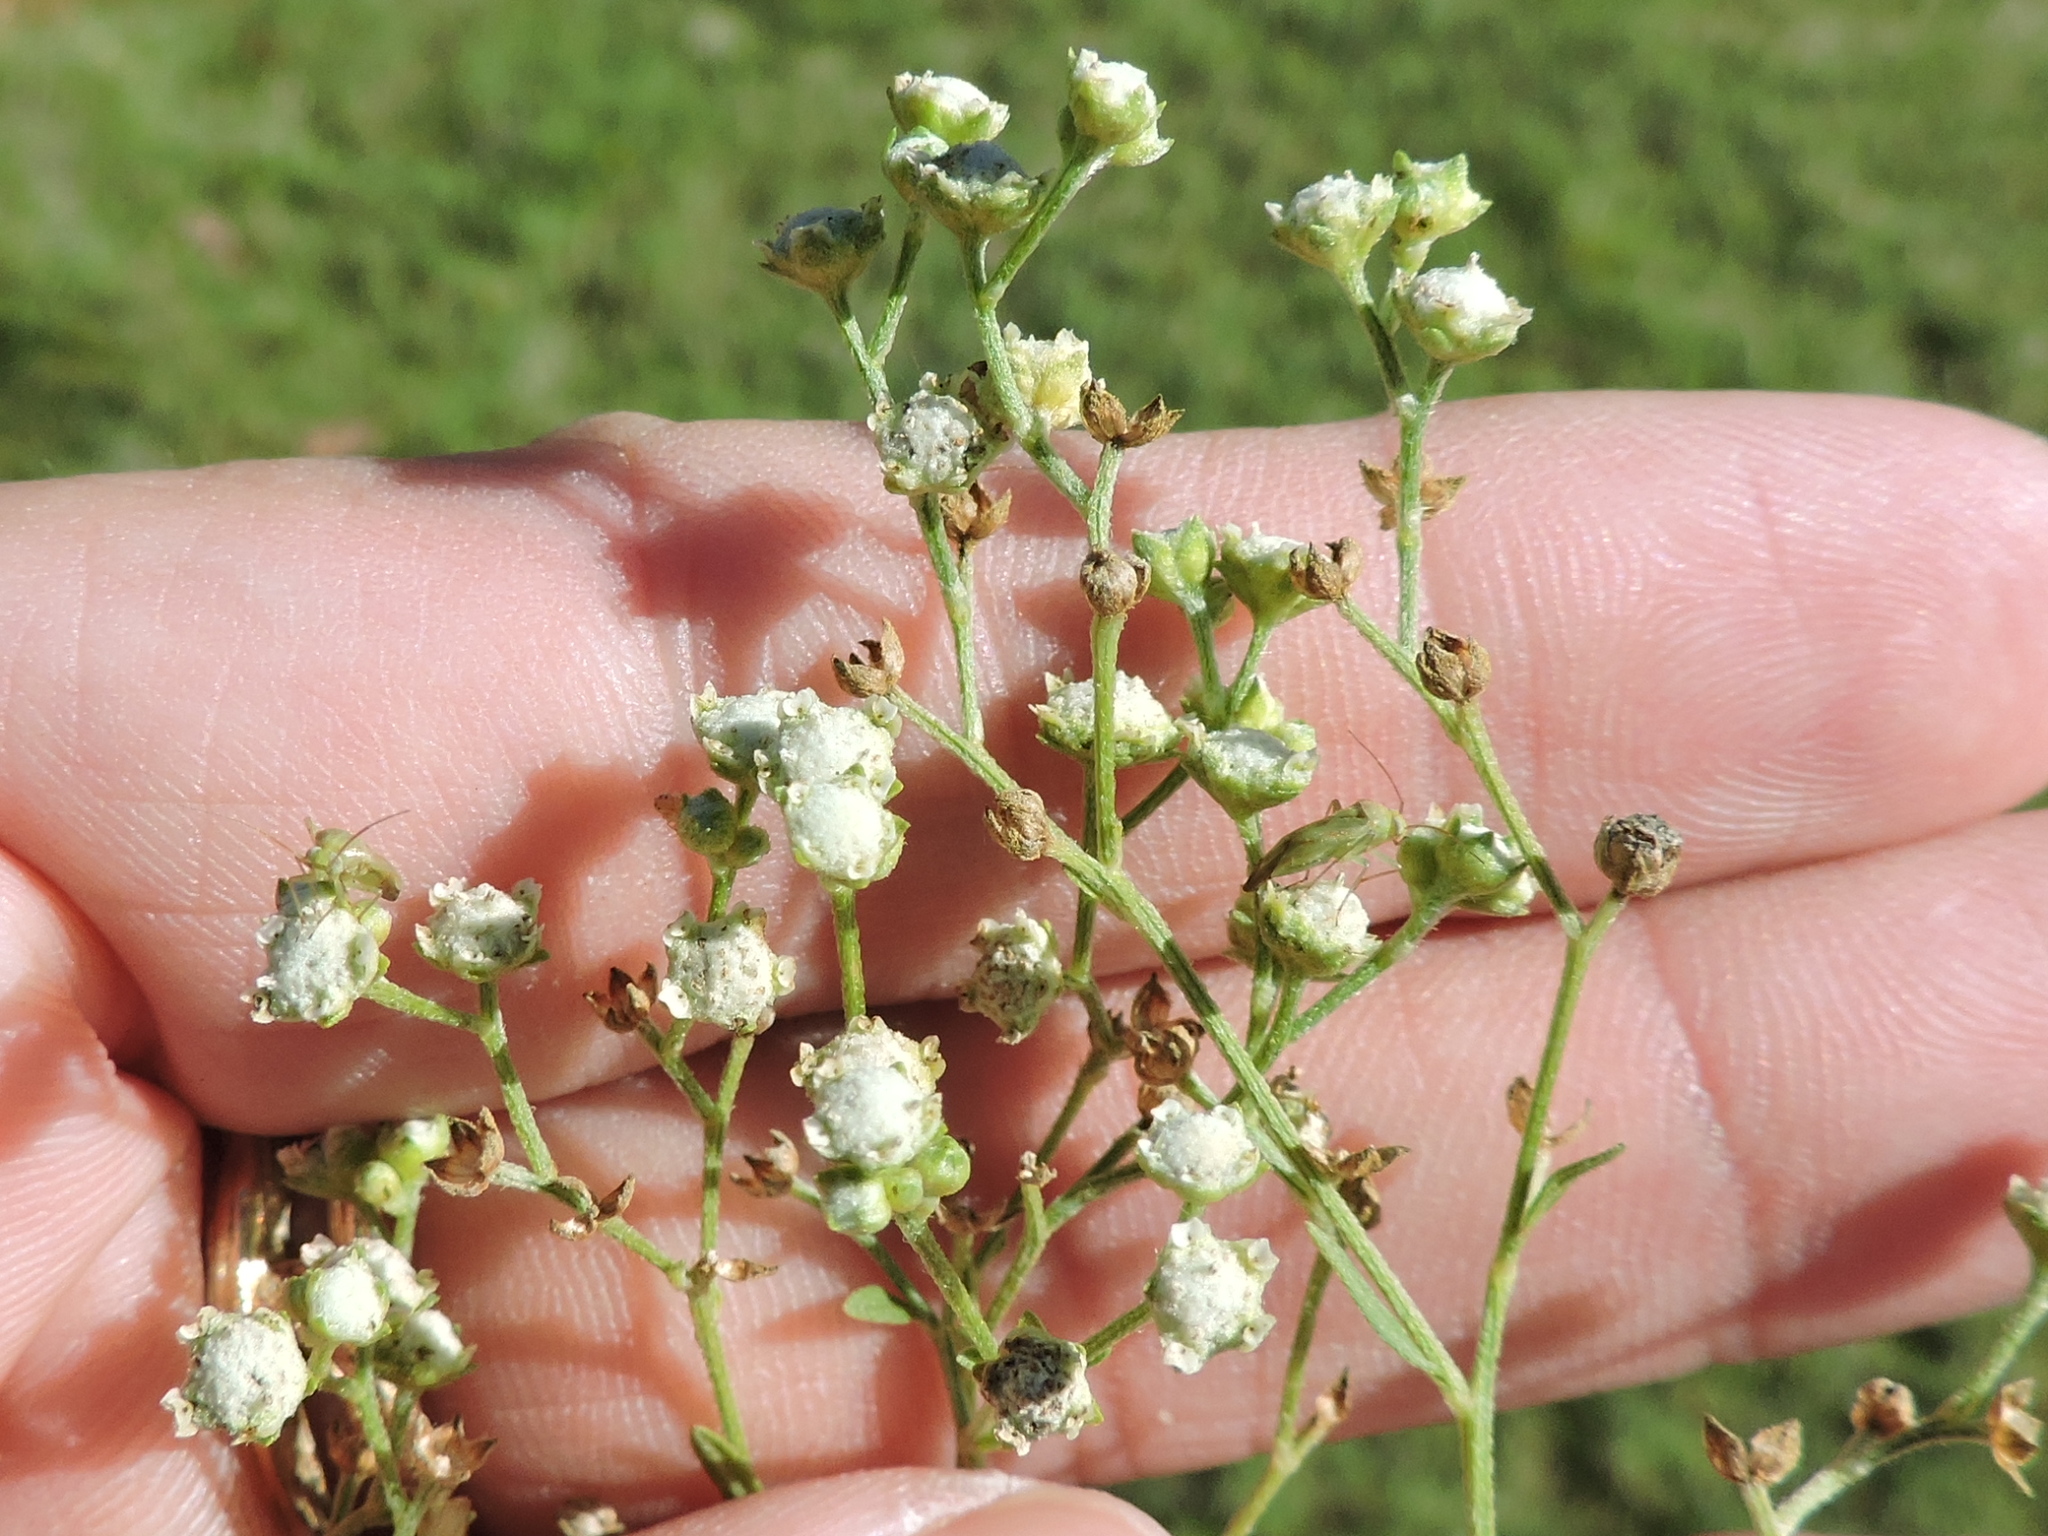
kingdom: Plantae
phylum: Tracheophyta
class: Magnoliopsida
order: Asterales
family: Asteraceae
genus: Parthenium
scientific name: Parthenium hysterophorus
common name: Santa maria feverfew
